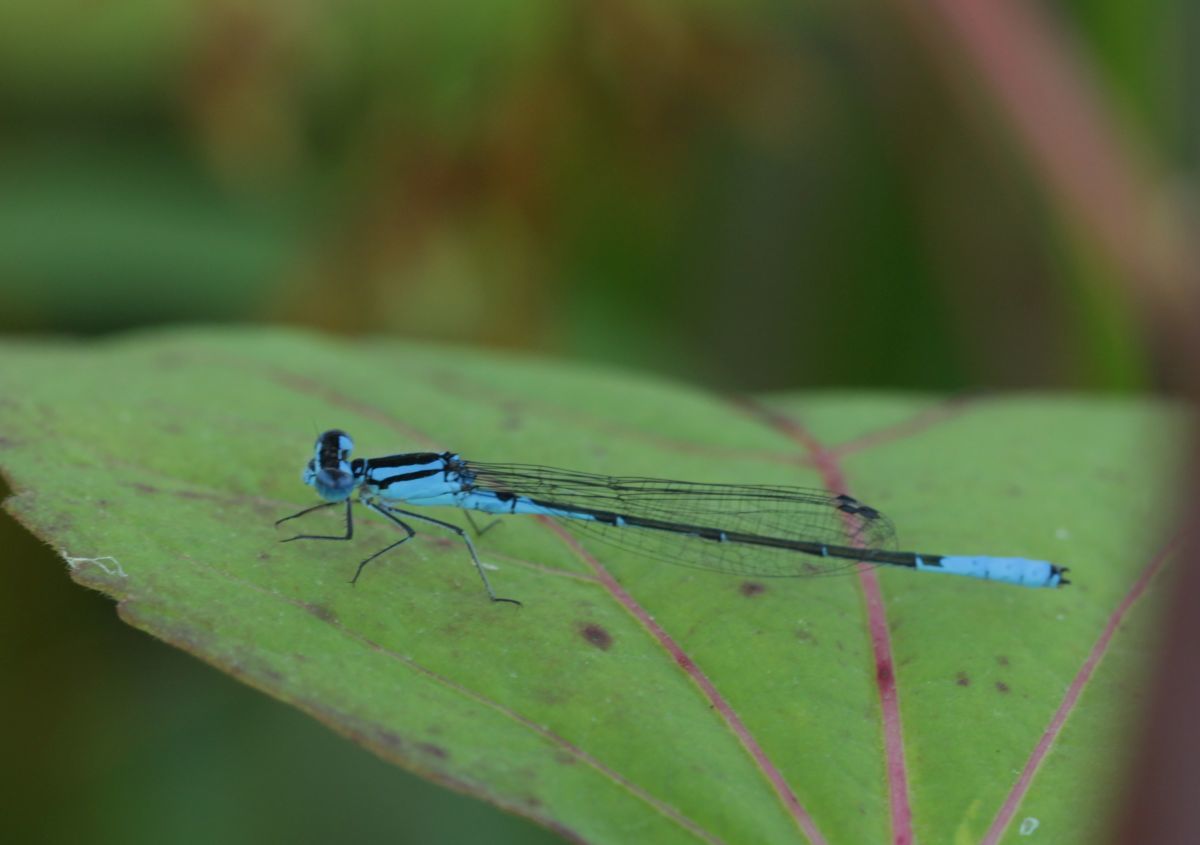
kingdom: Animalia
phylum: Arthropoda
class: Insecta
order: Odonata
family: Coenagrionidae
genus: Enallagma
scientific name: Enallagma aspersum
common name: Azure bluet
